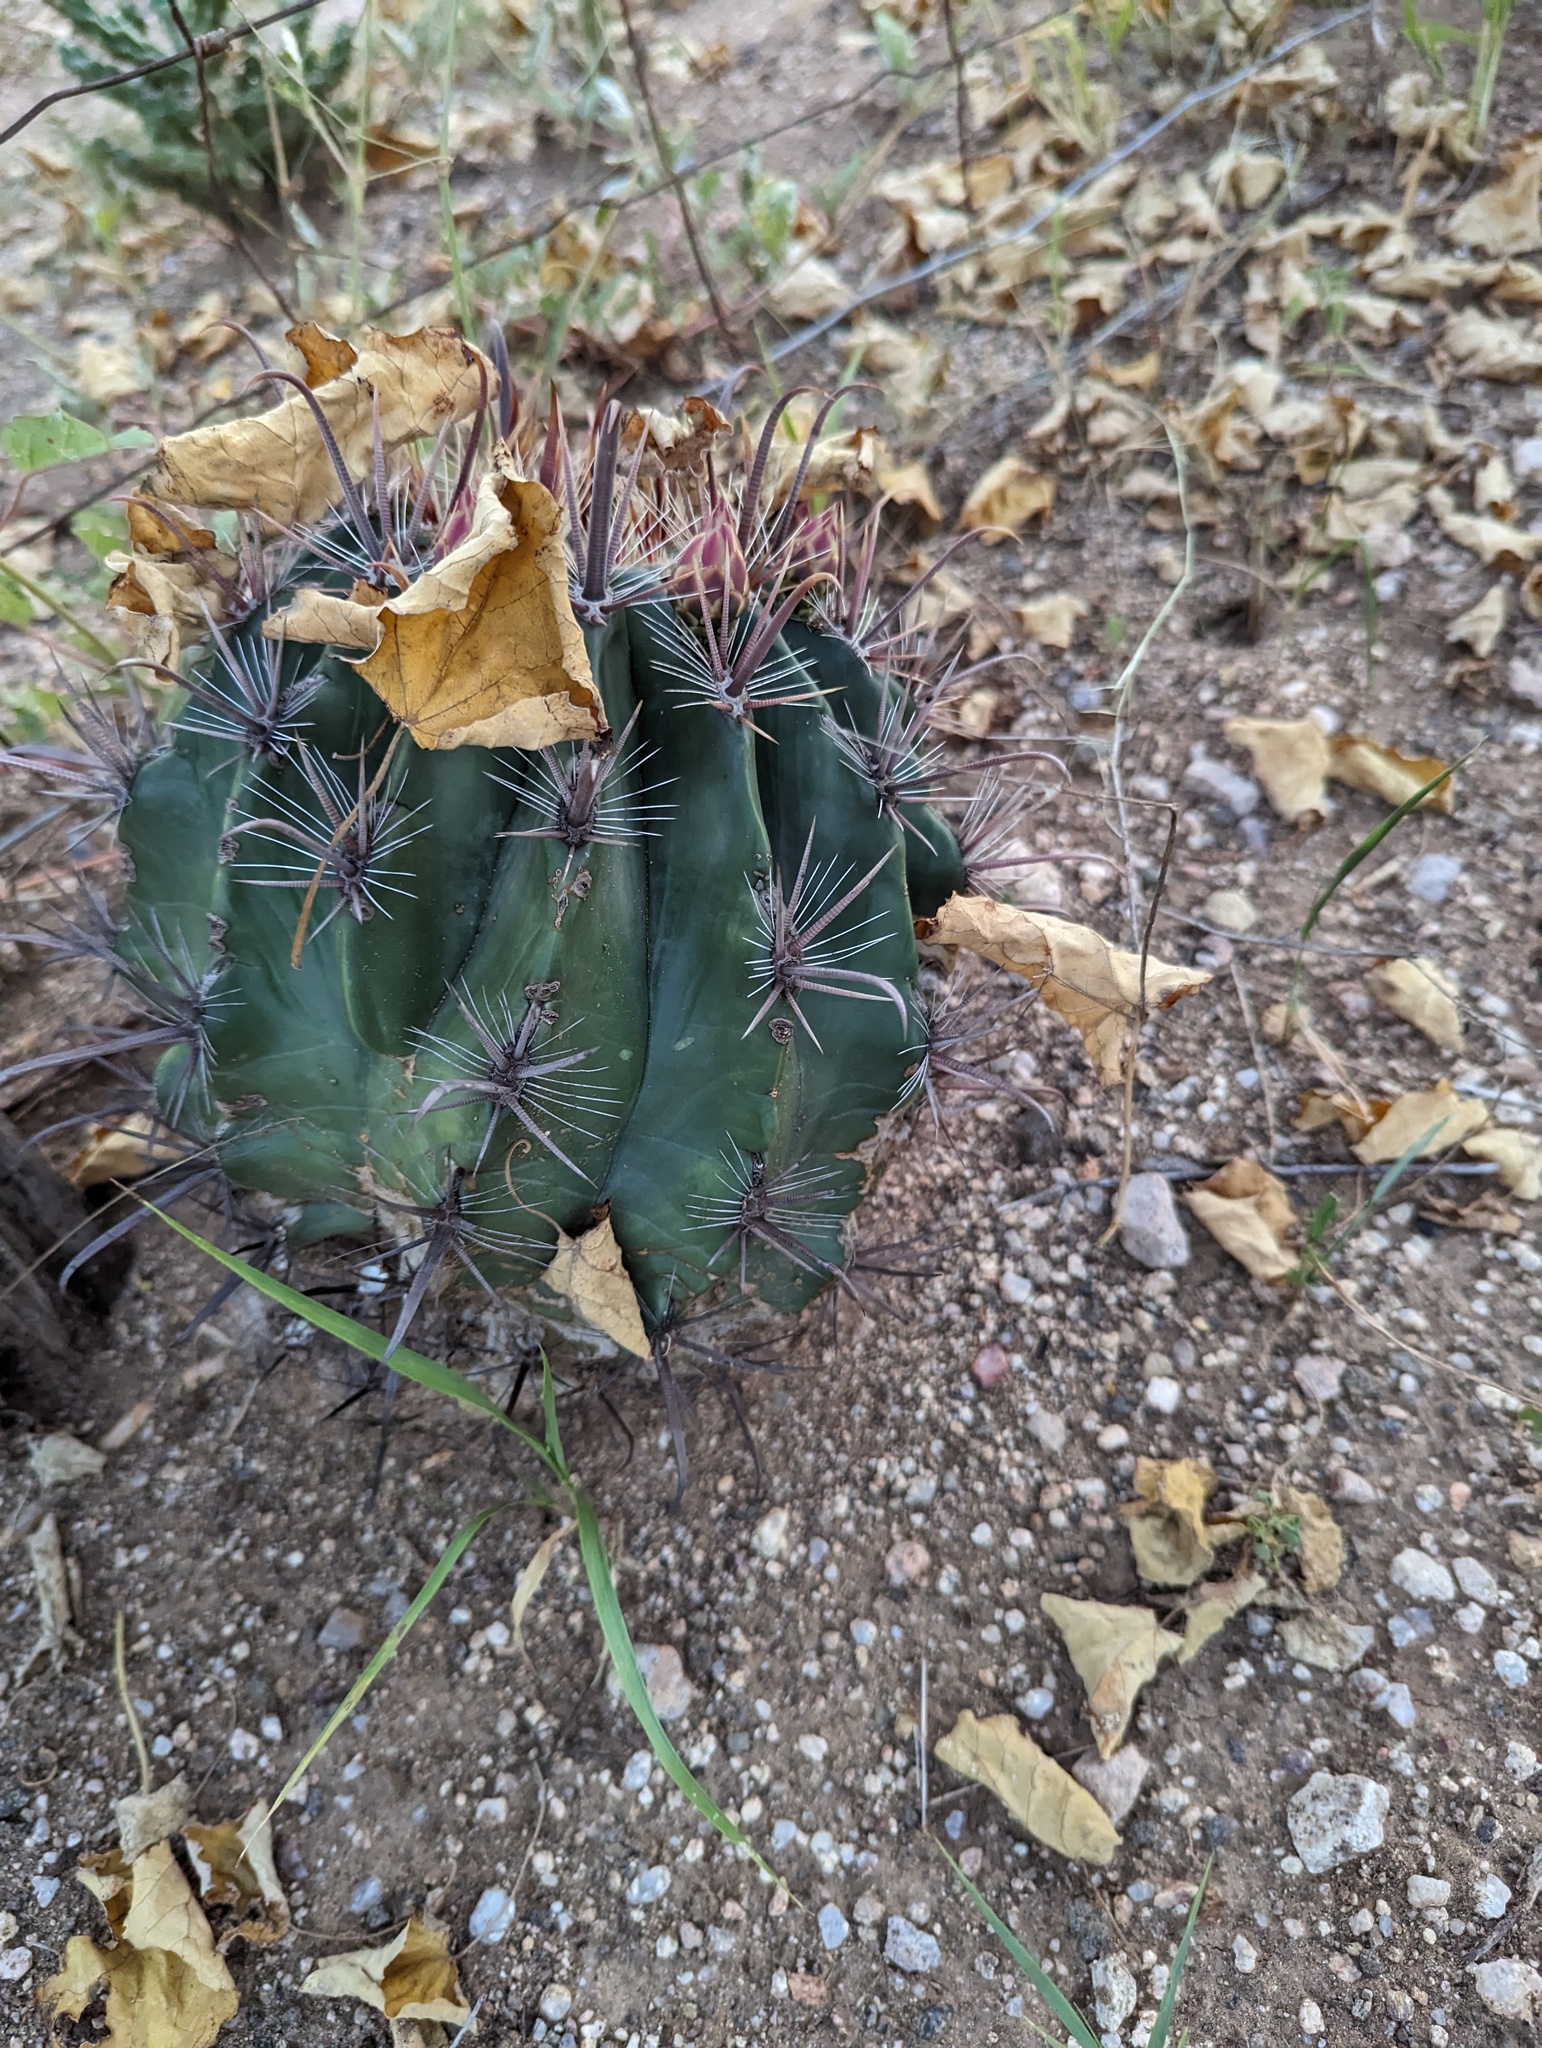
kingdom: Plantae
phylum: Tracheophyta
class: Magnoliopsida
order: Caryophyllales
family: Cactaceae
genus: Ferocactus
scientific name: Ferocactus townsendianus
